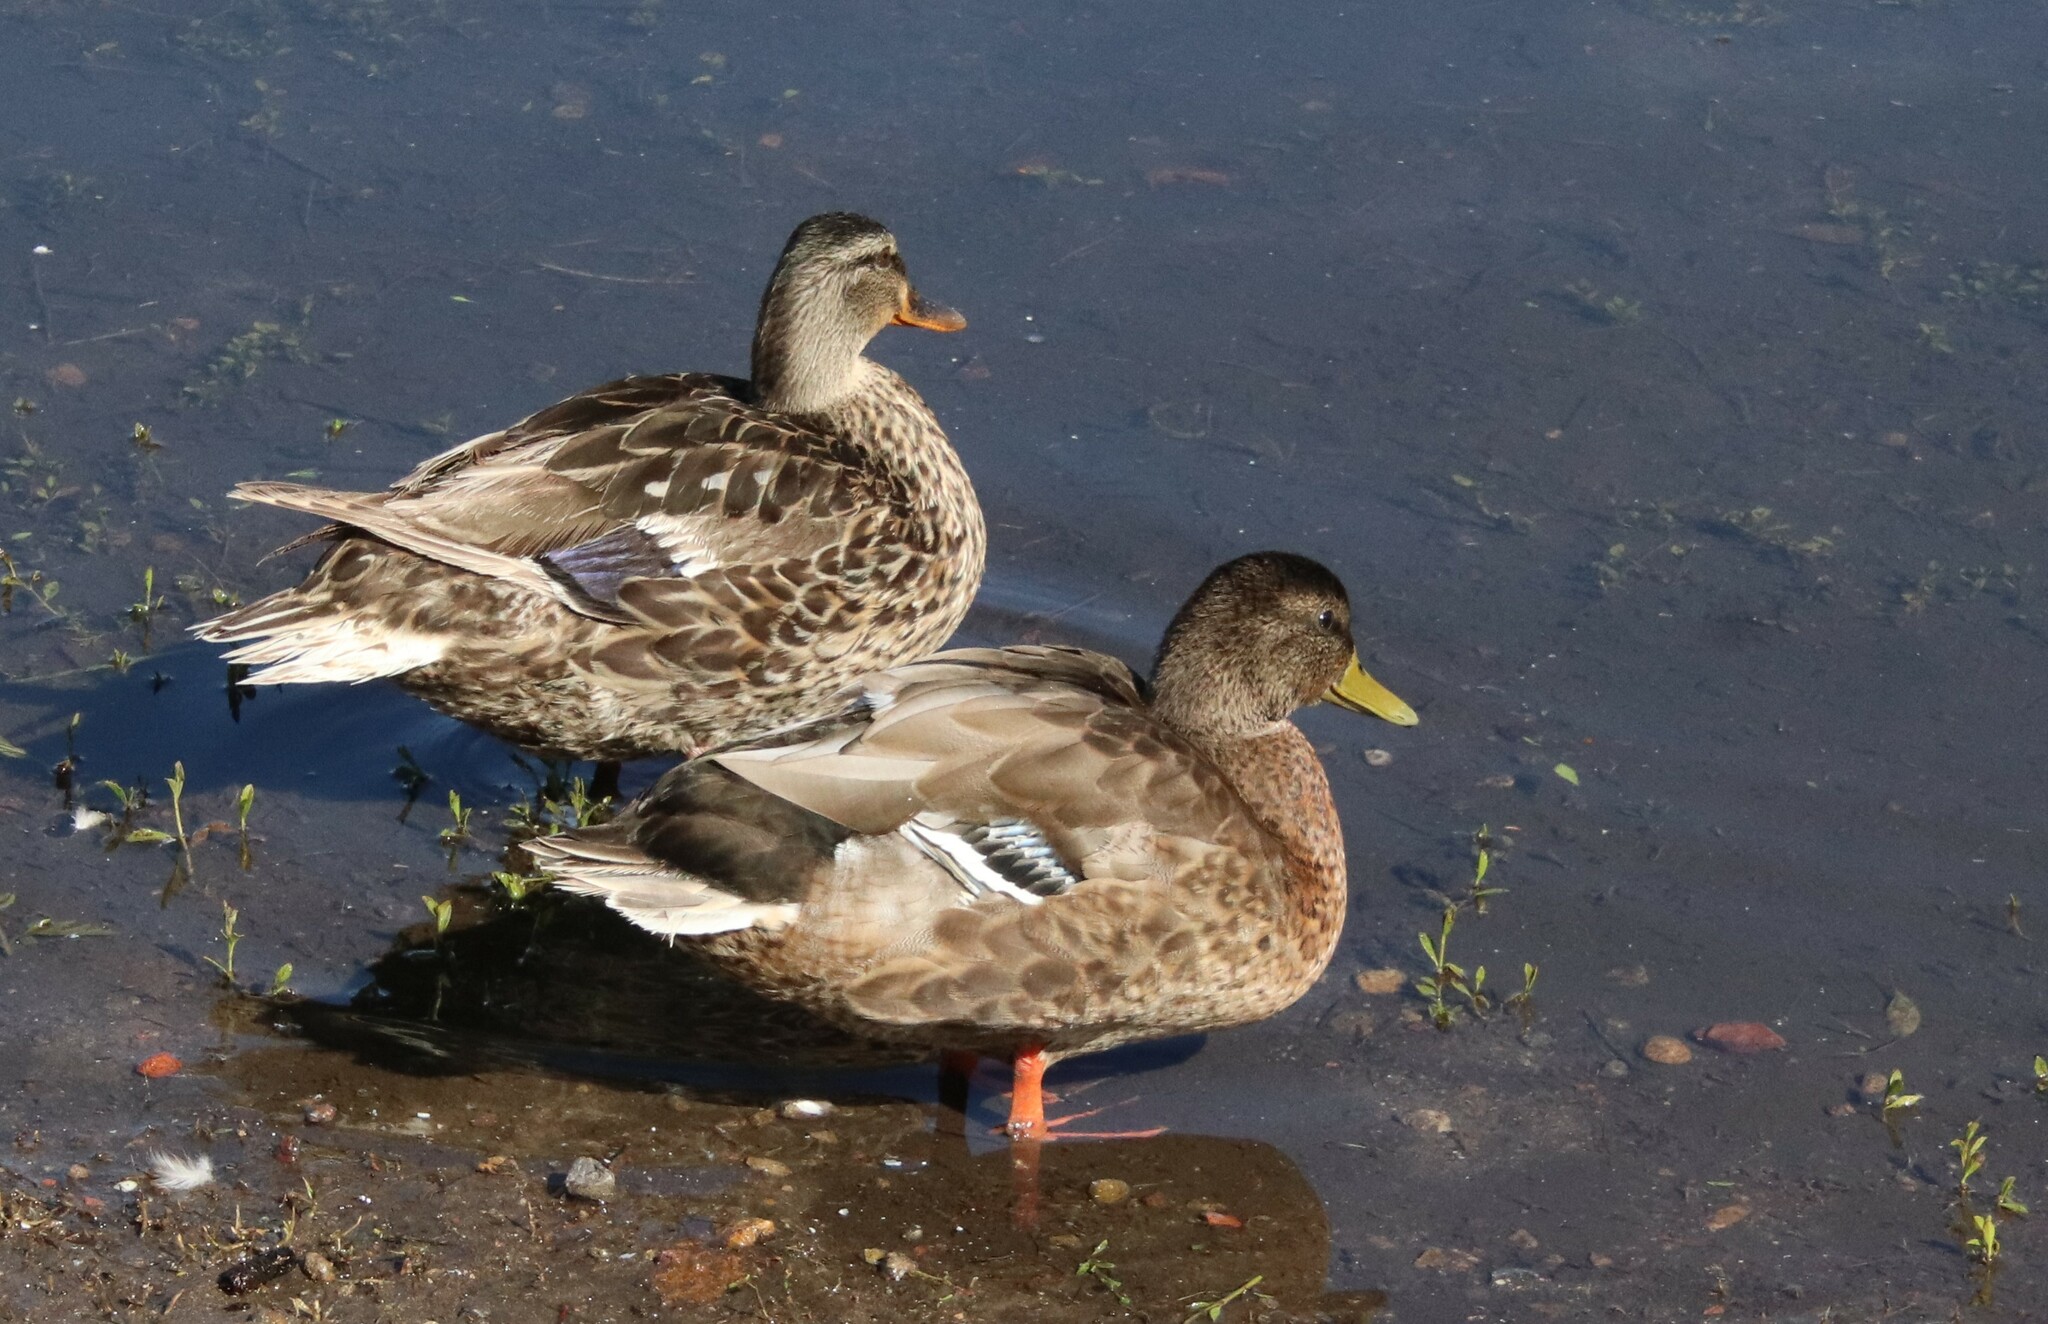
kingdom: Animalia
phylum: Chordata
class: Aves
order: Anseriformes
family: Anatidae
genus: Anas
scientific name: Anas platyrhynchos
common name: Mallard
